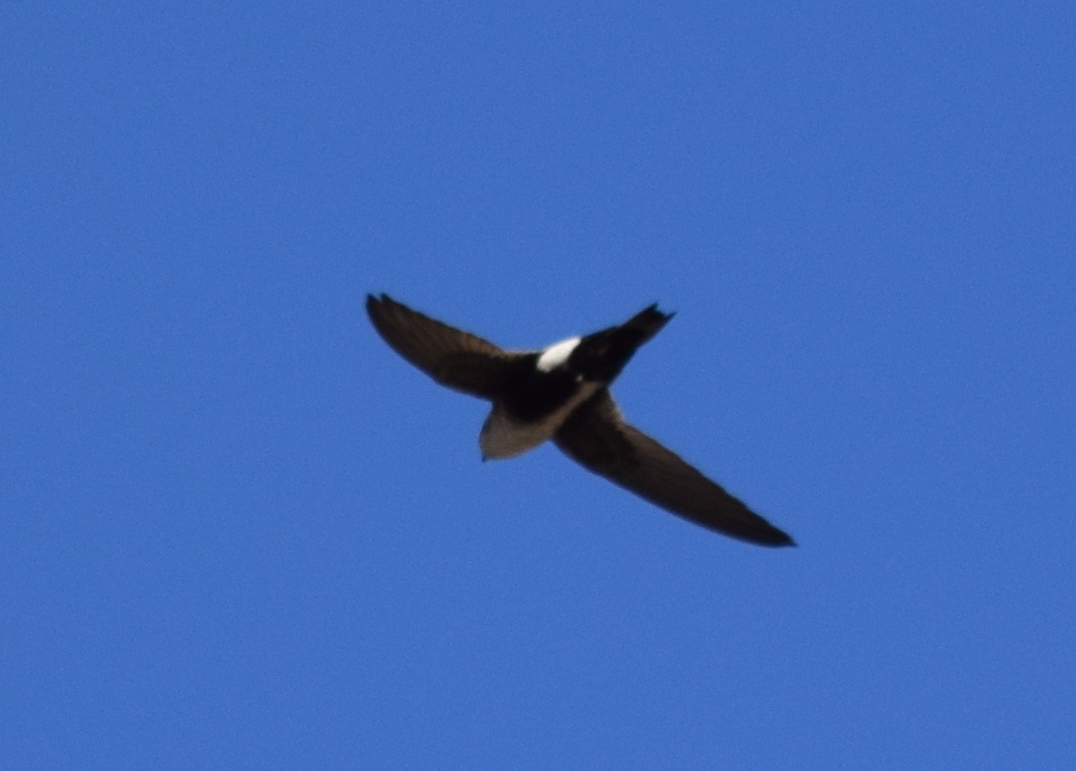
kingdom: Animalia
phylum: Chordata
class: Aves
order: Apodiformes
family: Apodidae
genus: Aeronautes
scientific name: Aeronautes saxatalis
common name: White-throated swift
